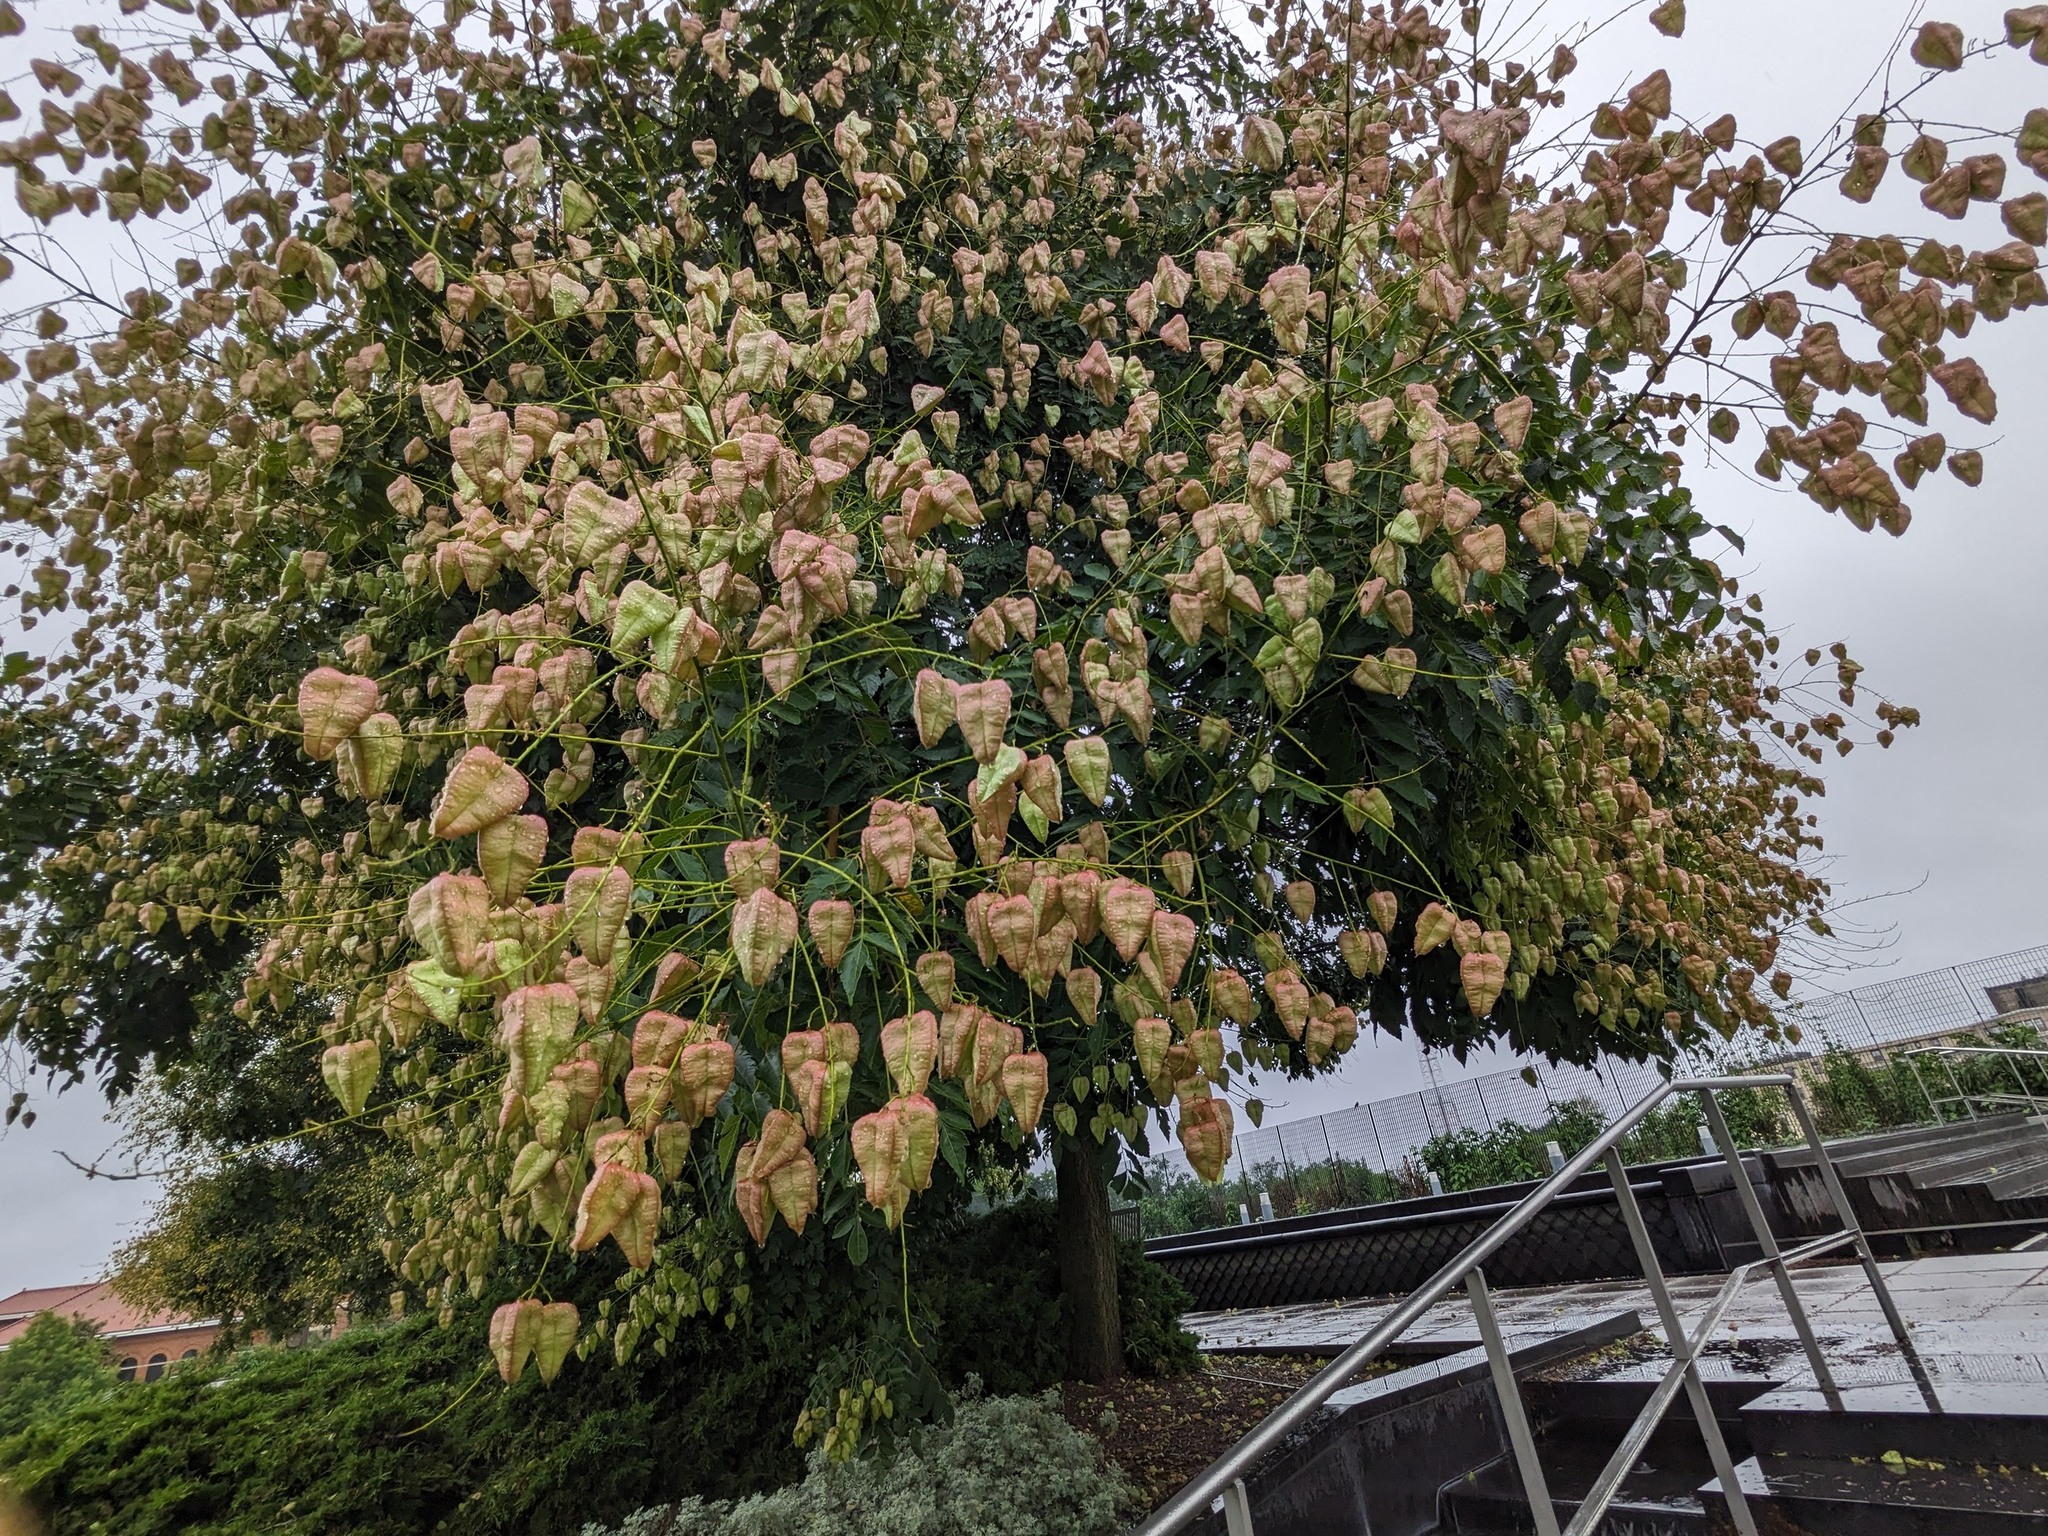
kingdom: Plantae
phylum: Tracheophyta
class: Magnoliopsida
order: Sapindales
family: Sapindaceae
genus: Koelreuteria
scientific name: Koelreuteria paniculata
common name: Pride-of-india
